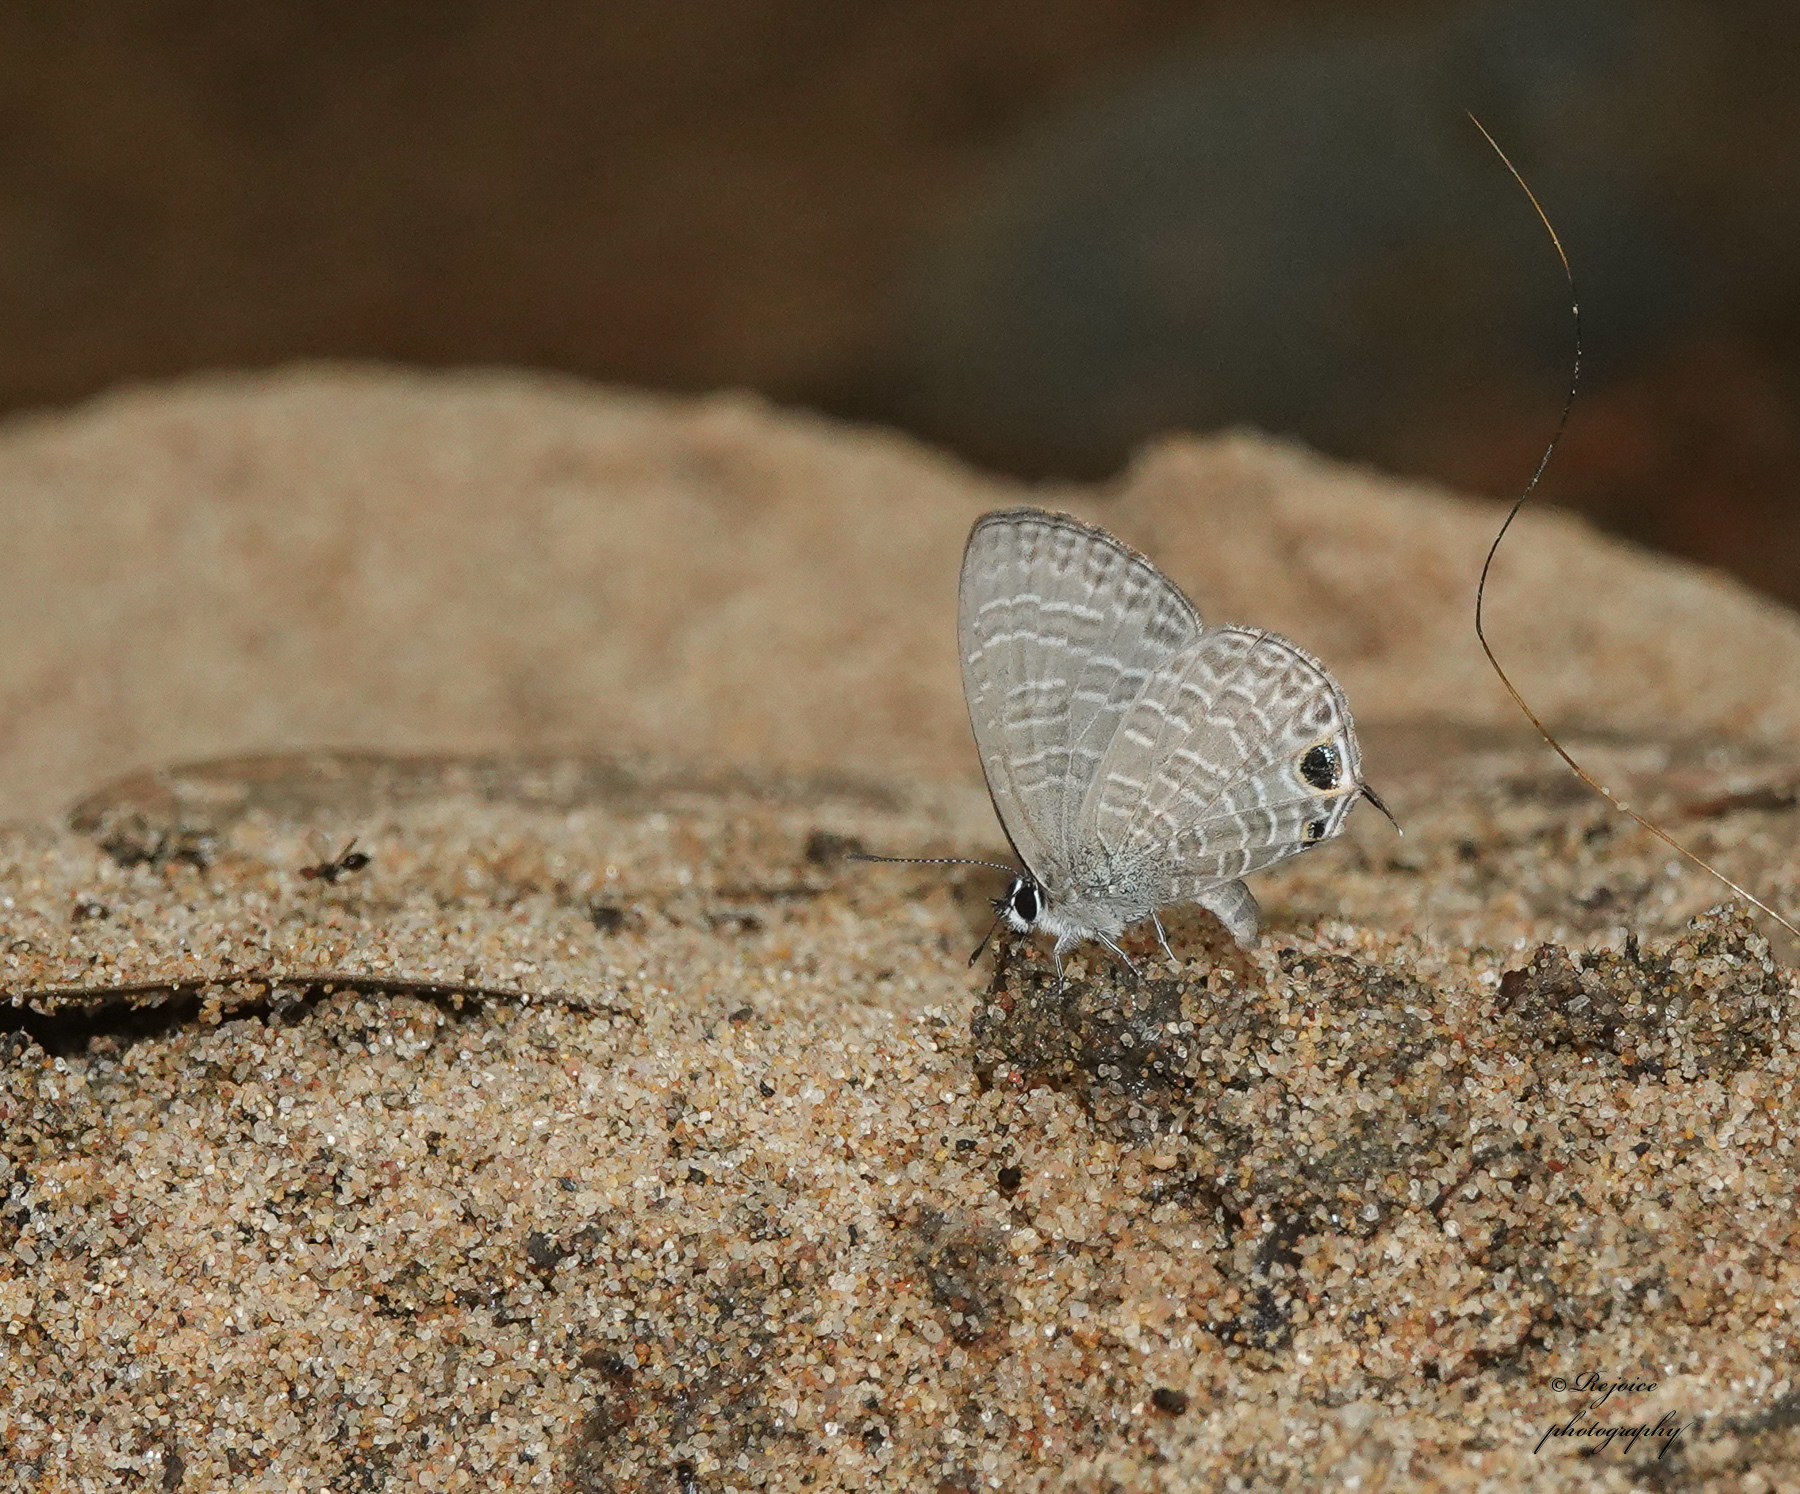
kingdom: Animalia
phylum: Arthropoda
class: Insecta
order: Lepidoptera
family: Lycaenidae
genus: Nacaduba
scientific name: Nacaduba berenice
